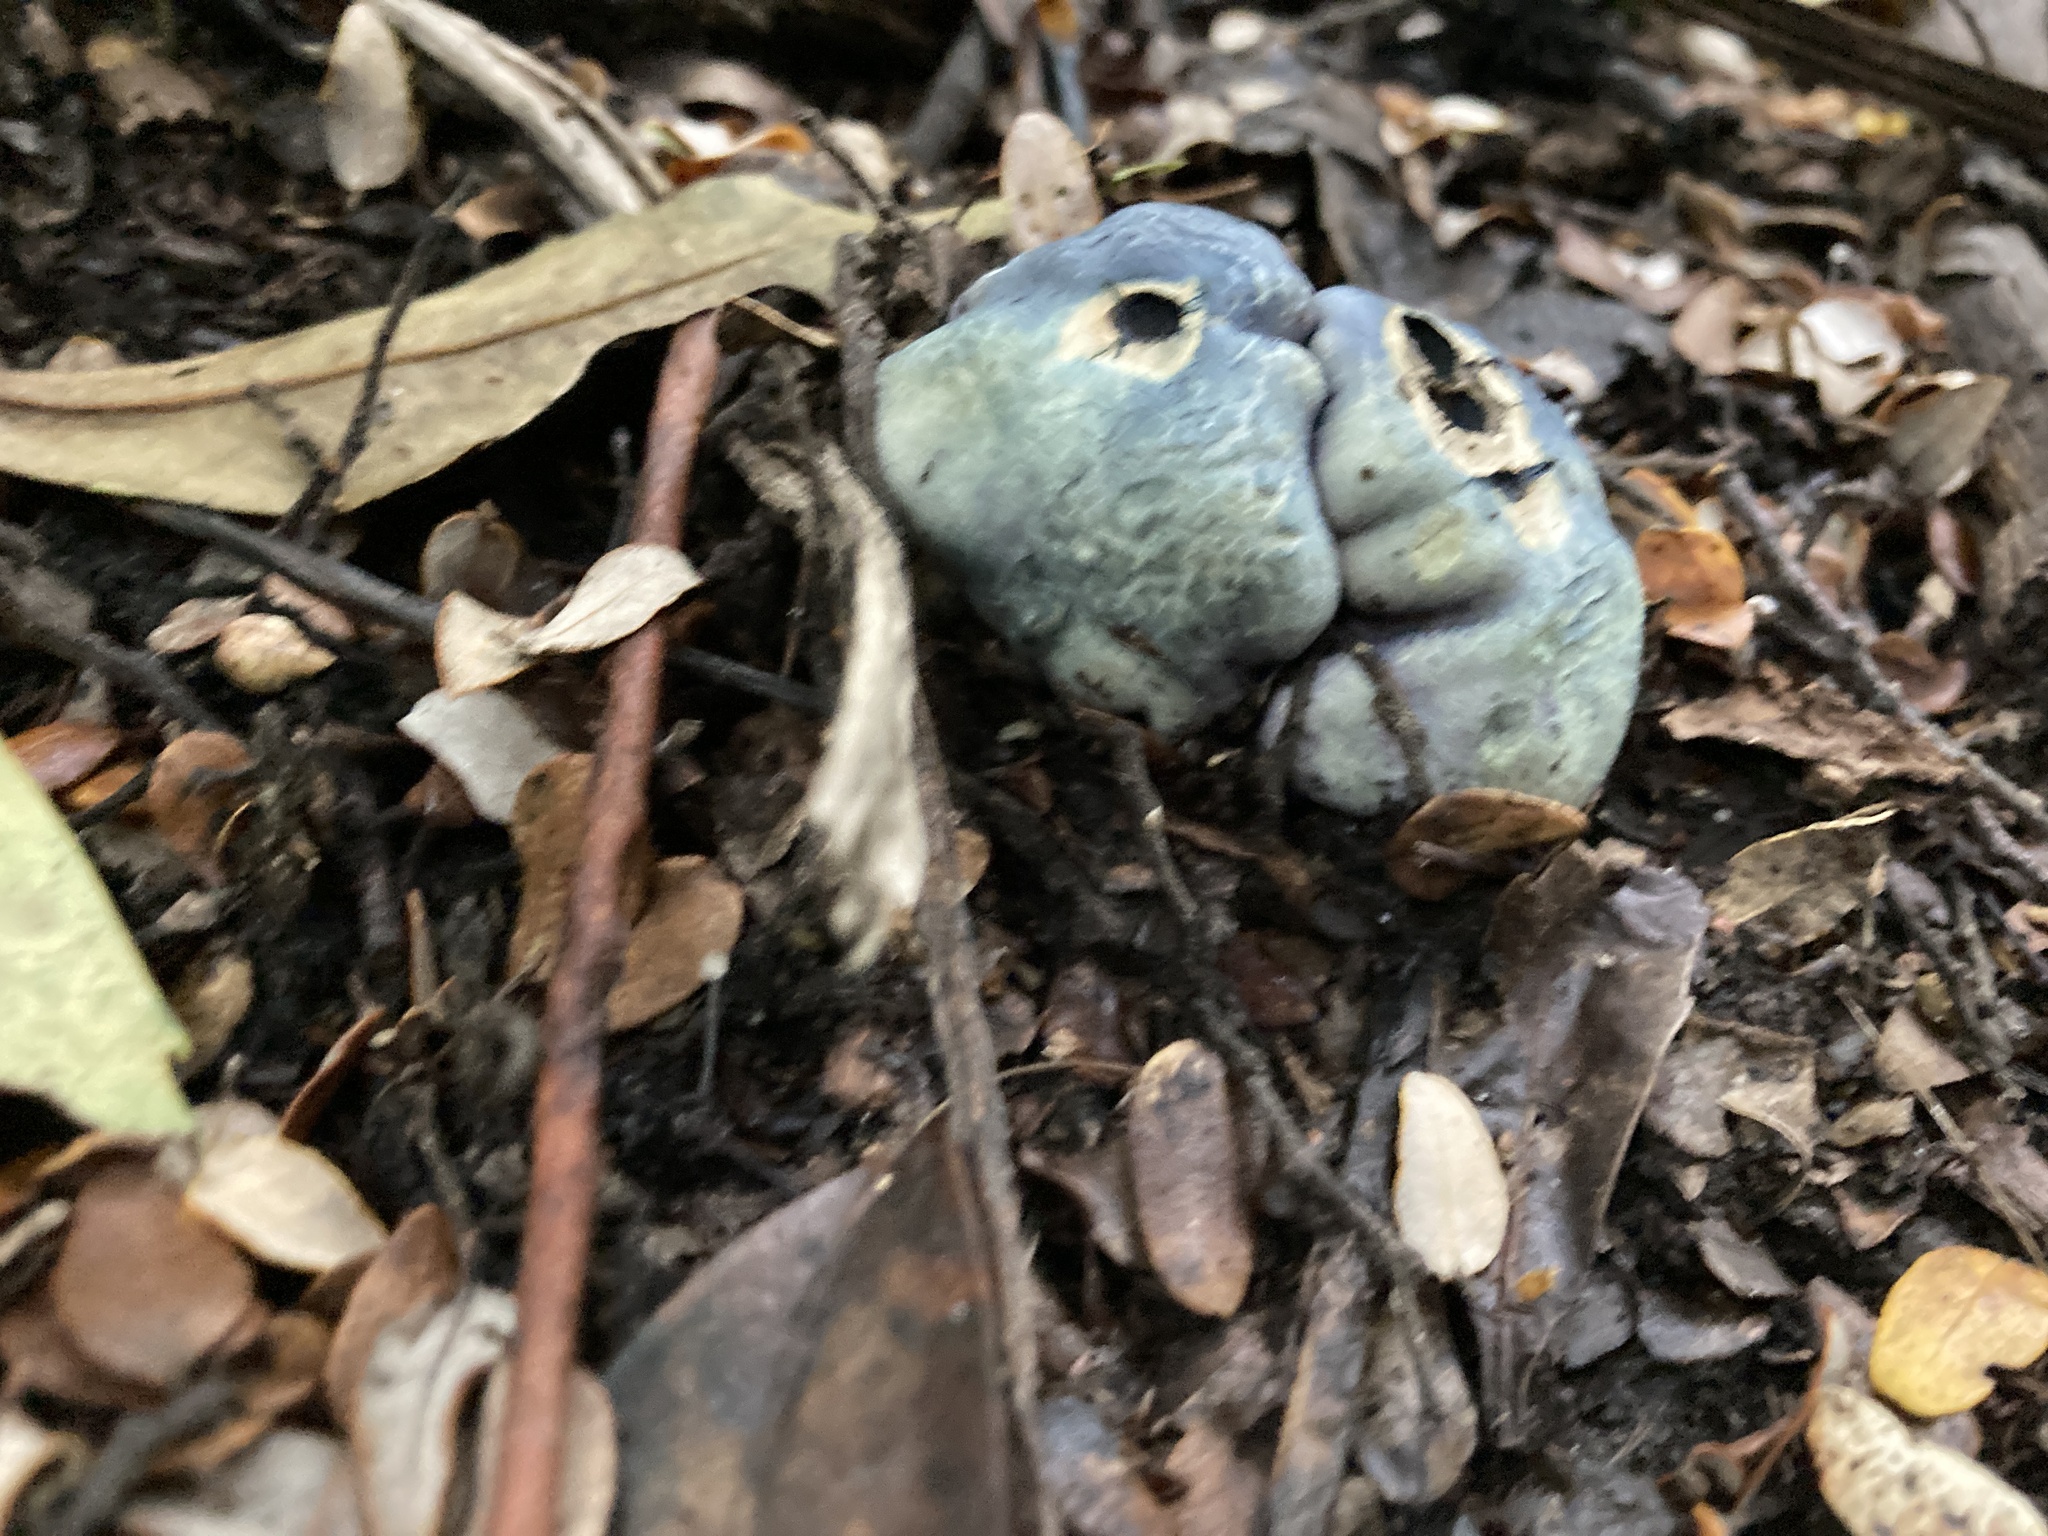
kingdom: Fungi
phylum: Basidiomycota
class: Agaricomycetes
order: Boletales
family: Boletaceae
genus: Leccinum
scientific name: Leccinum pachyderme
